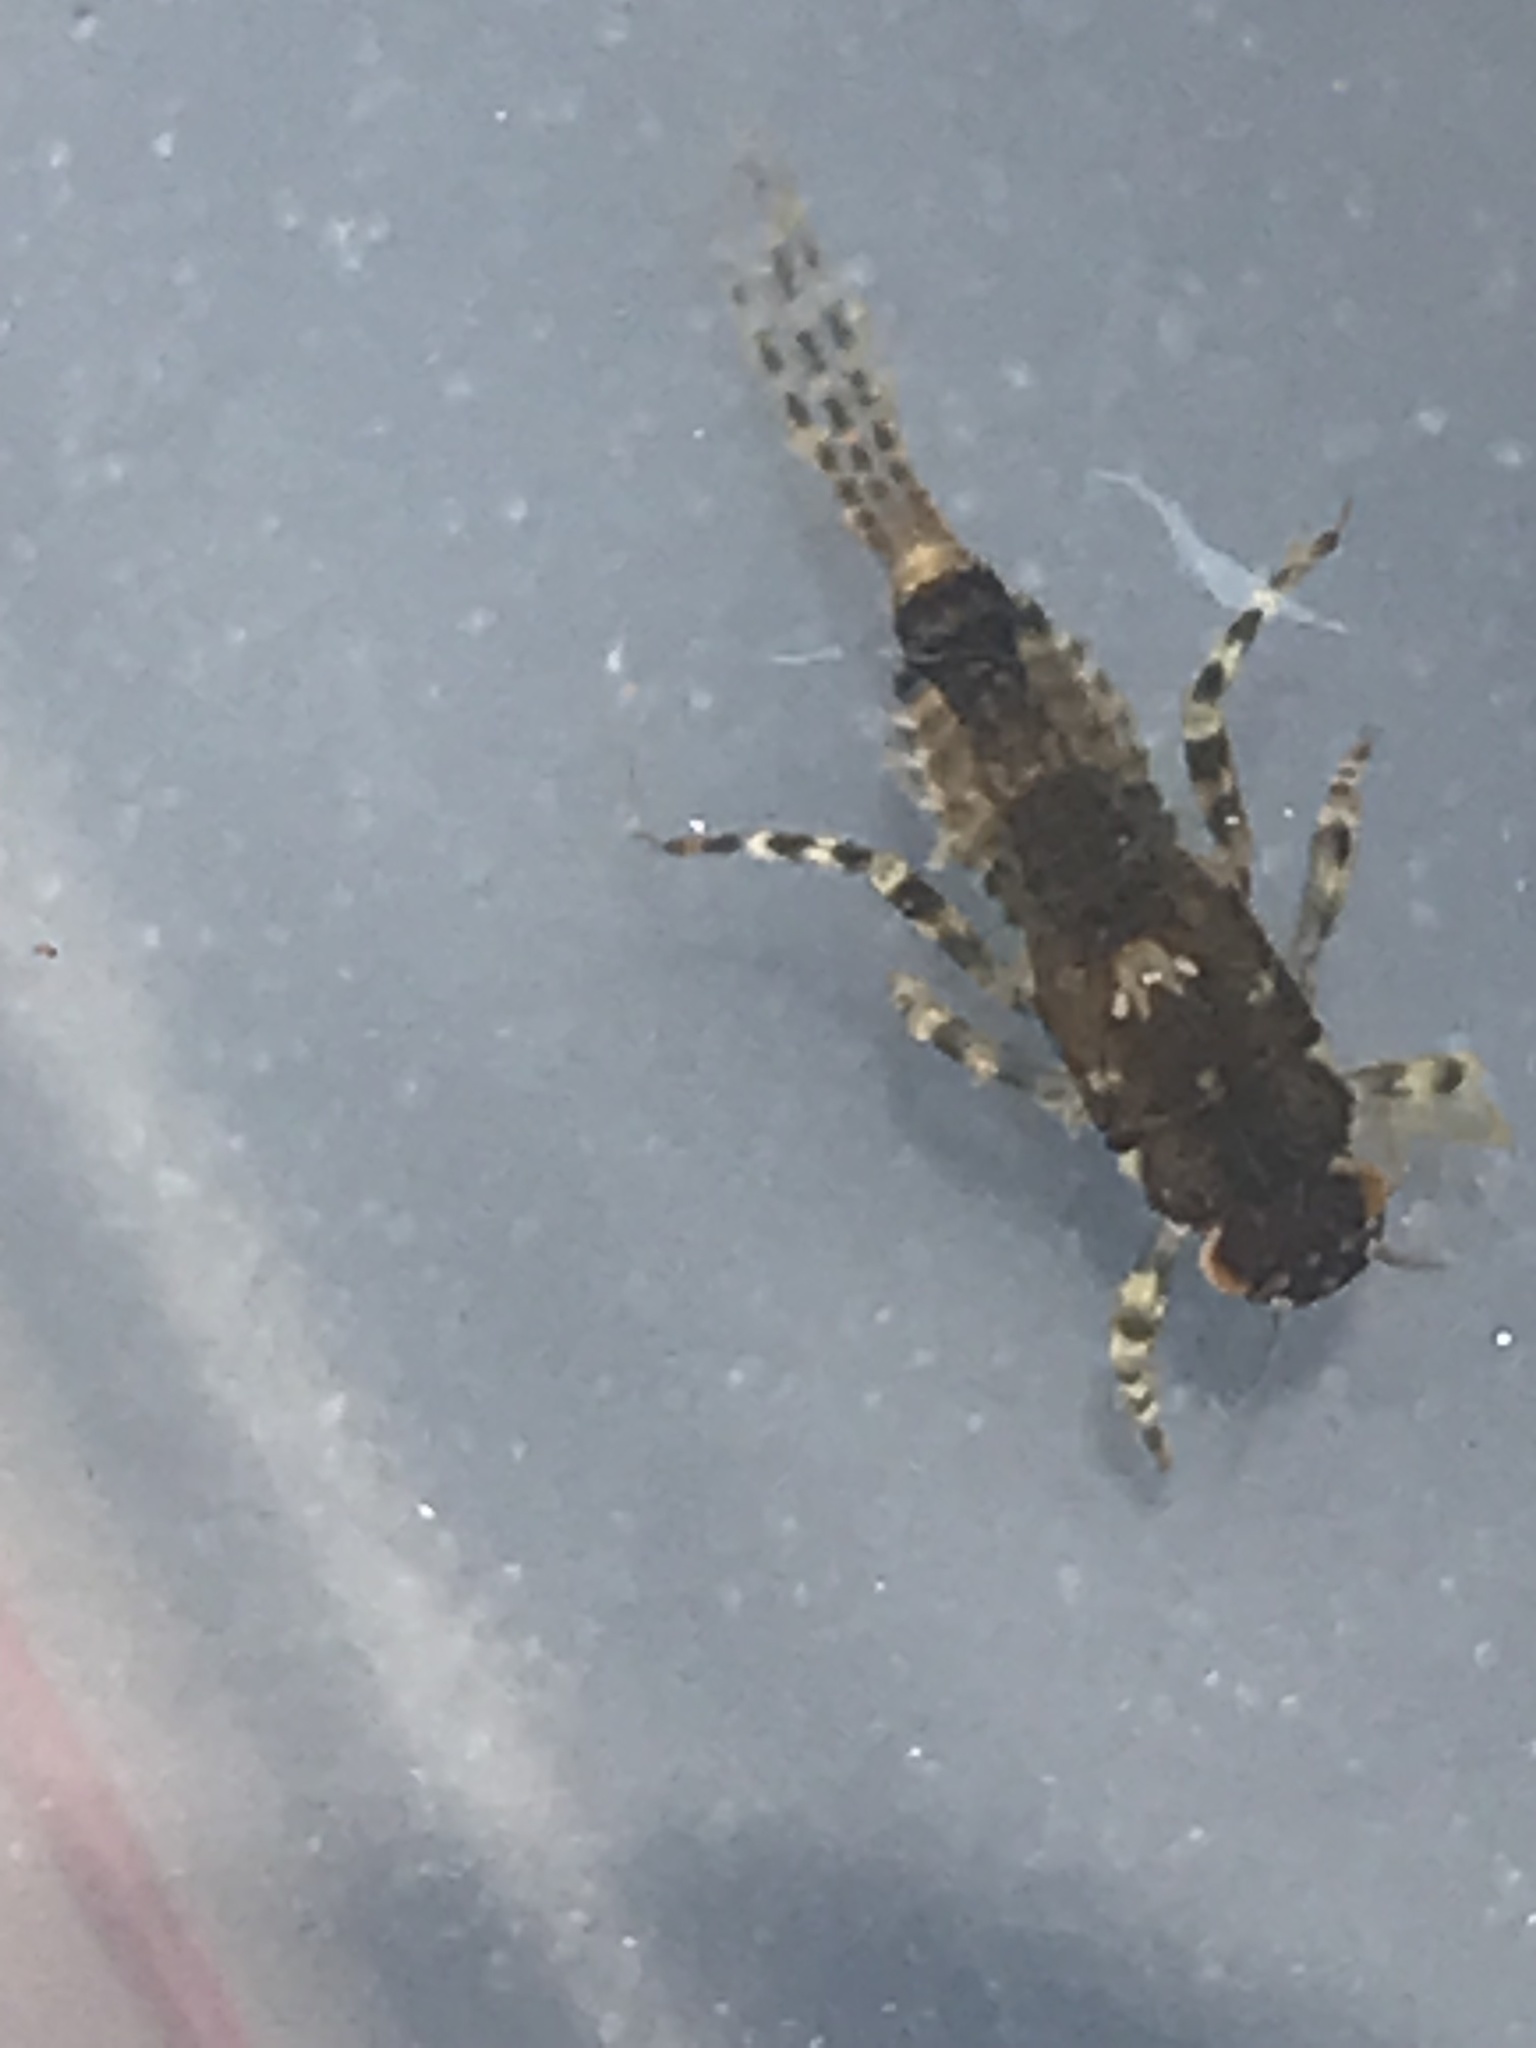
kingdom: Animalia
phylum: Arthropoda
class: Insecta
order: Ephemeroptera
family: Ephemerellidae
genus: Serratella
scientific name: Serratella ignita
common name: Blue-winged olive
